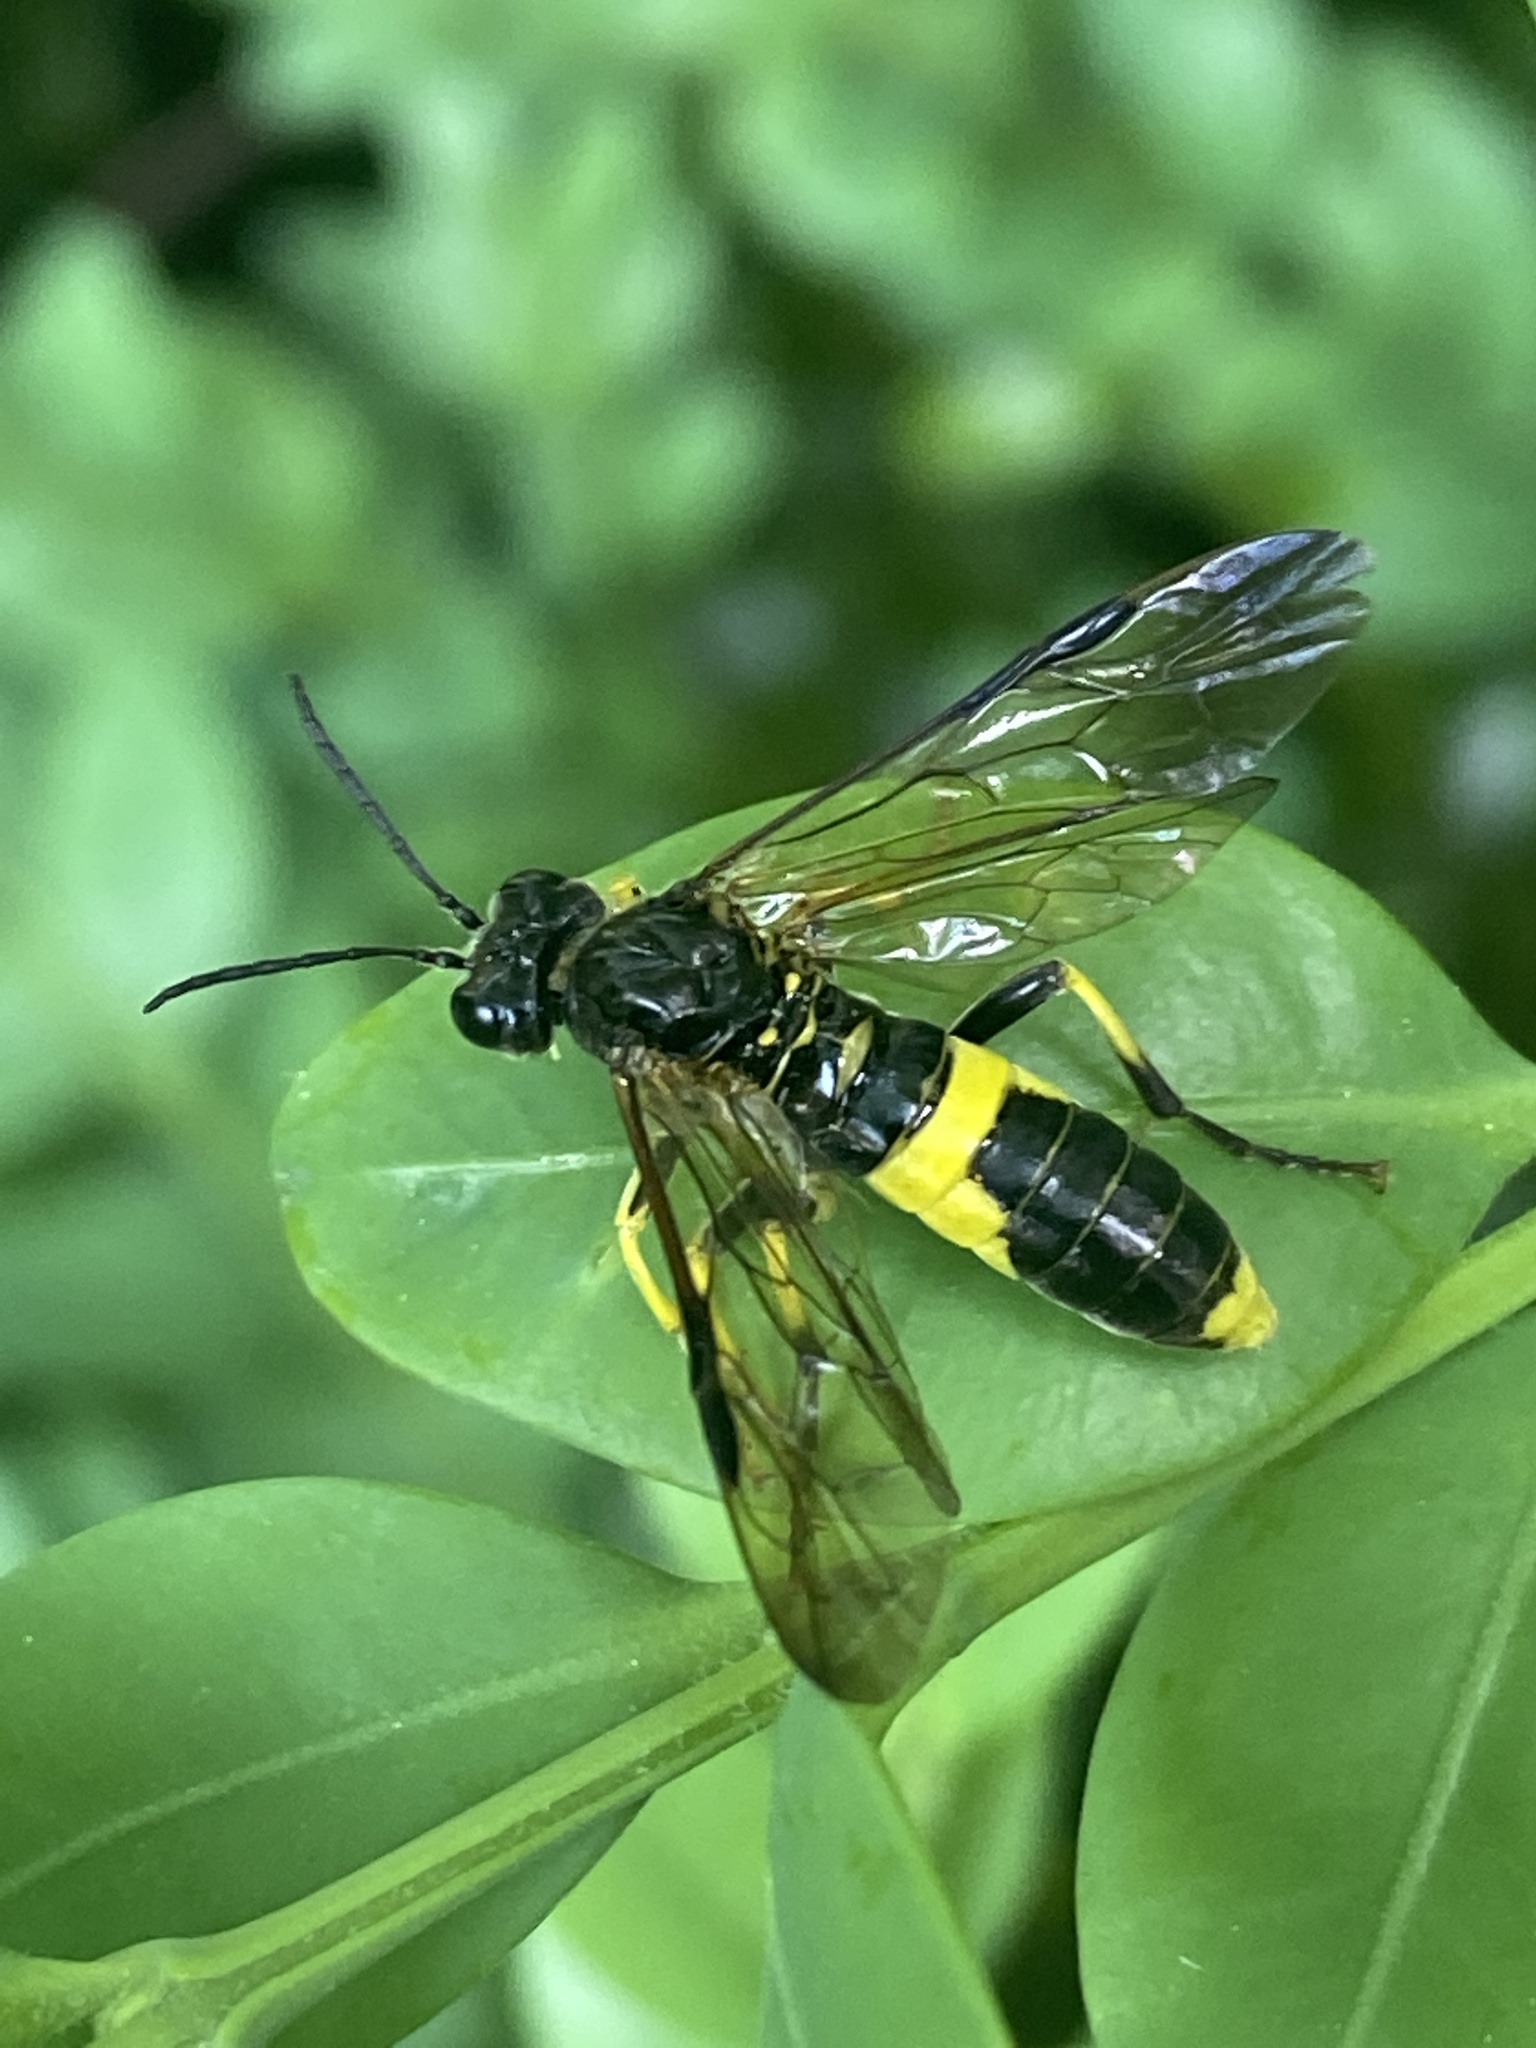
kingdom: Animalia
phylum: Arthropoda
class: Insecta
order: Hymenoptera
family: Tenthredinidae
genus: Tenthredo
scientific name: Tenthredo temula
